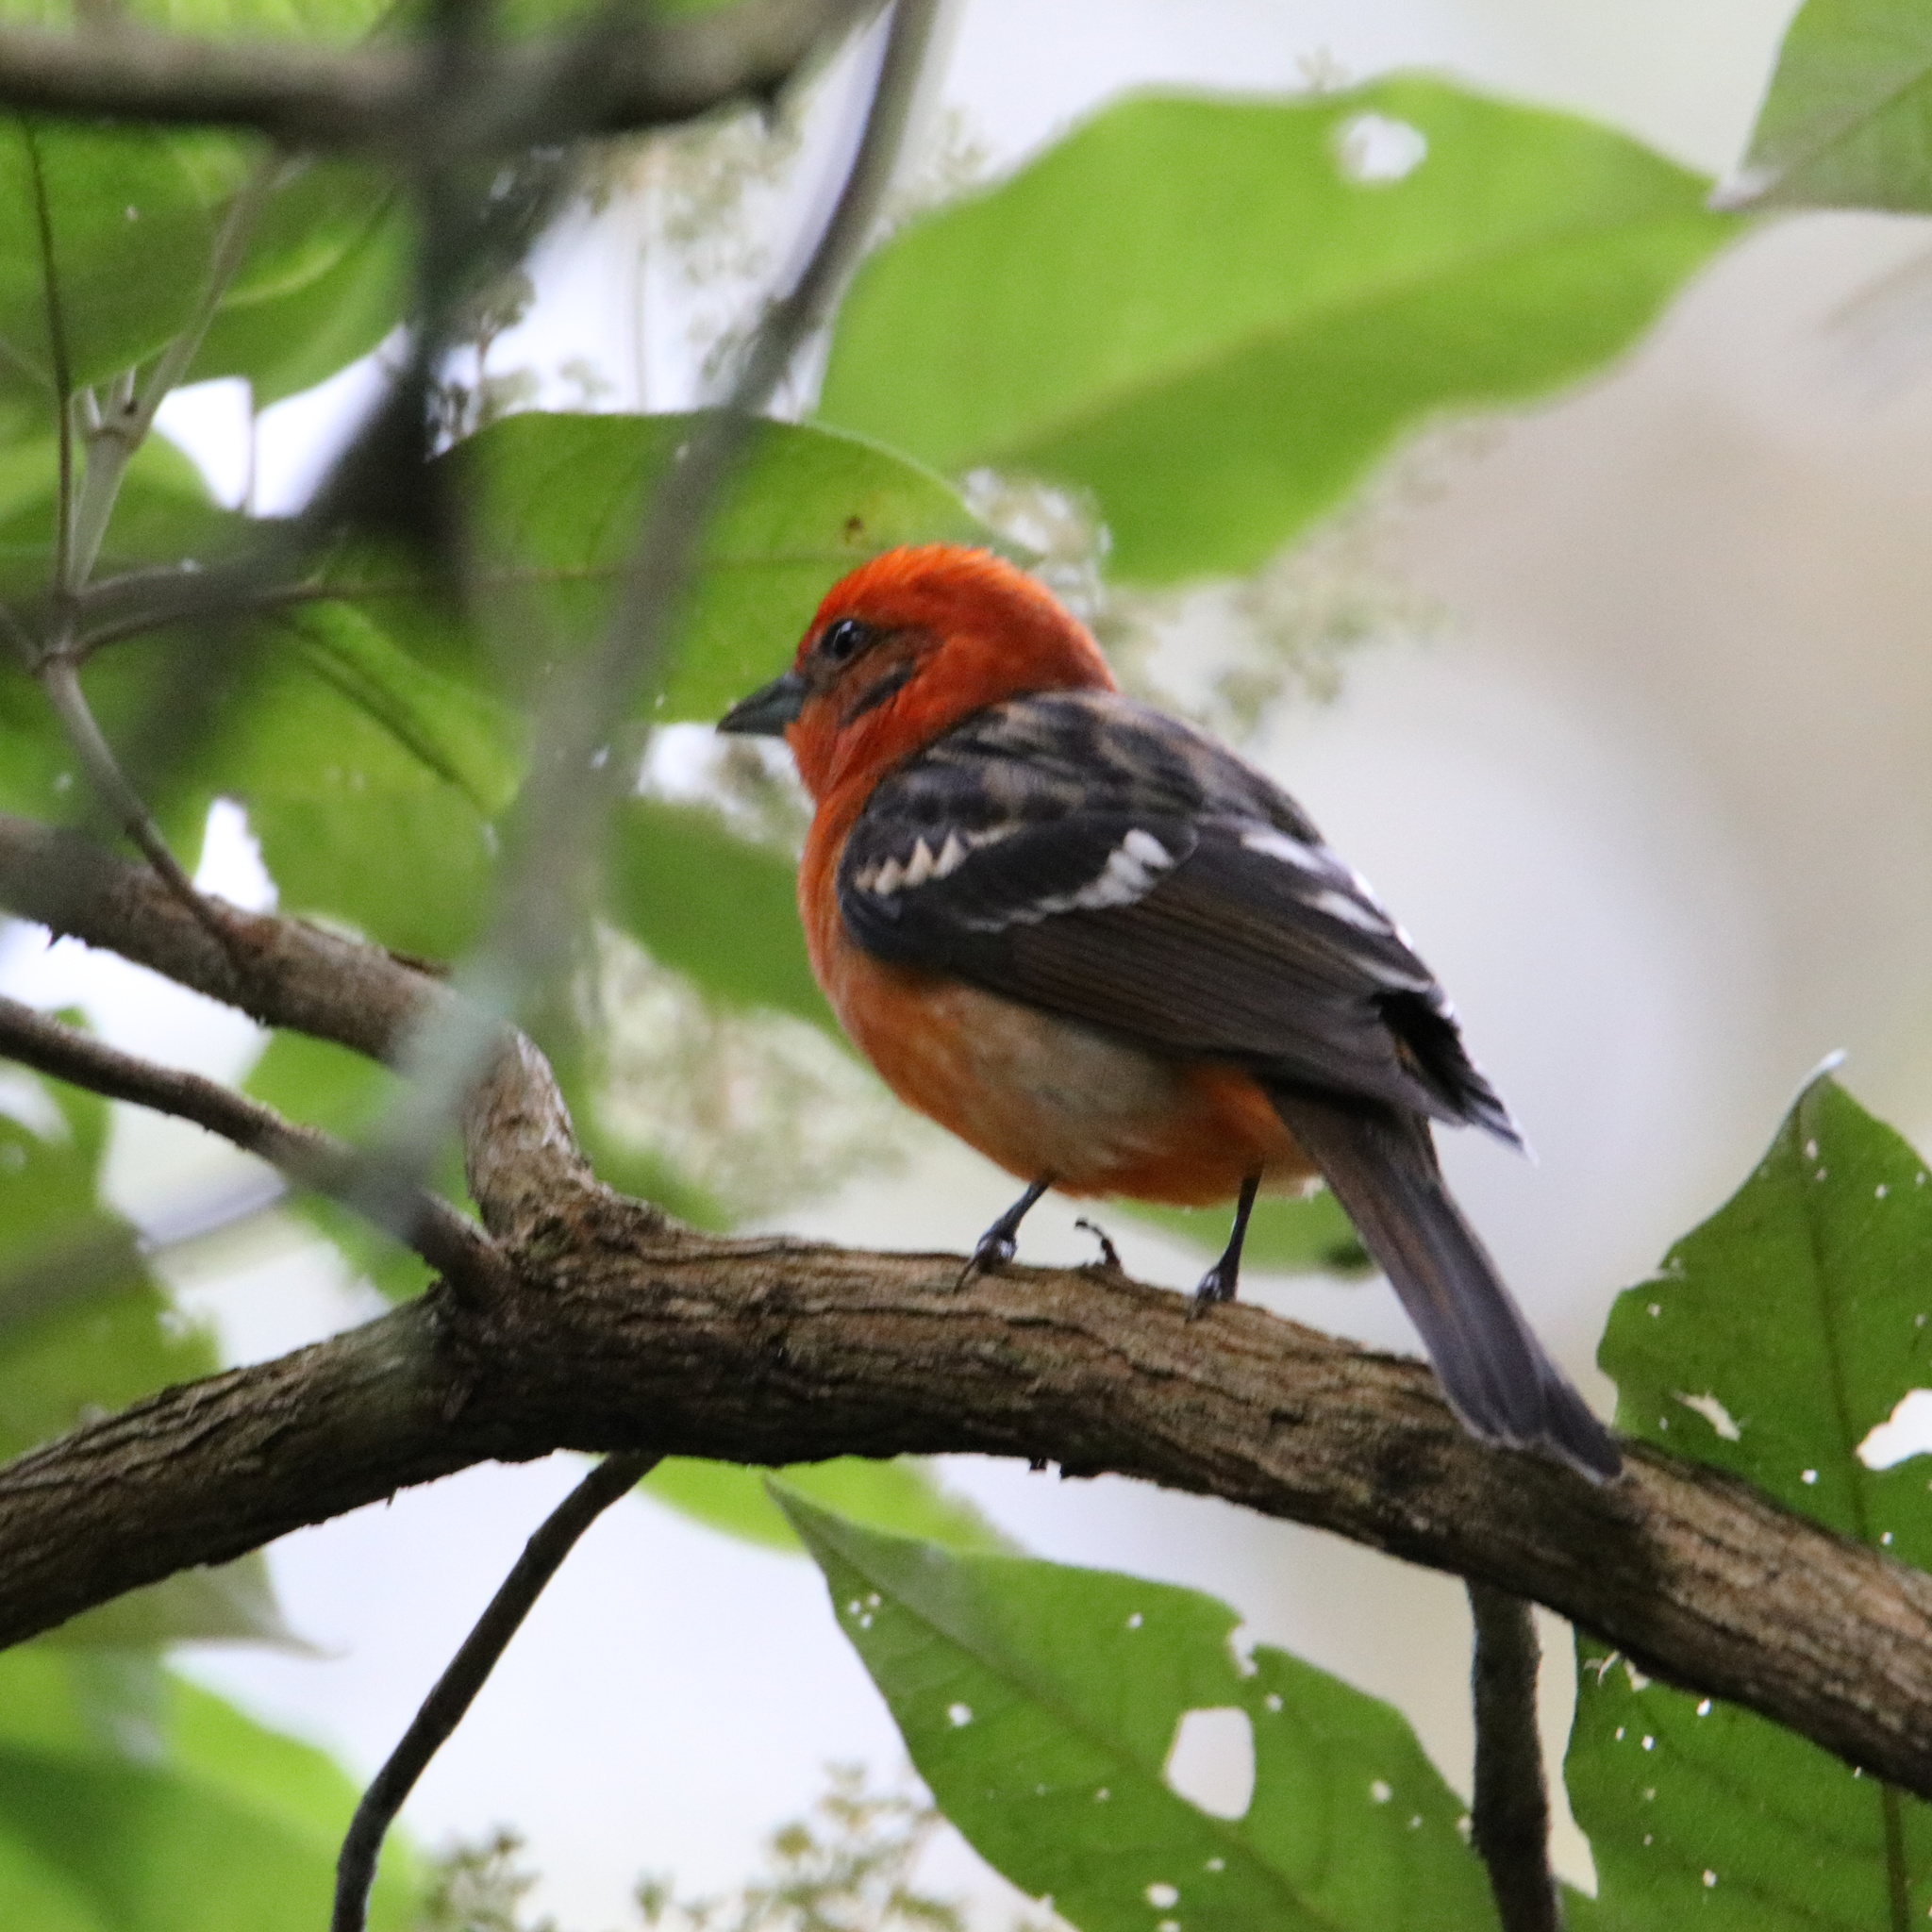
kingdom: Animalia
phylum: Chordata
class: Aves
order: Passeriformes
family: Cardinalidae
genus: Piranga
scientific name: Piranga bidentata
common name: Flame-colored tanager
